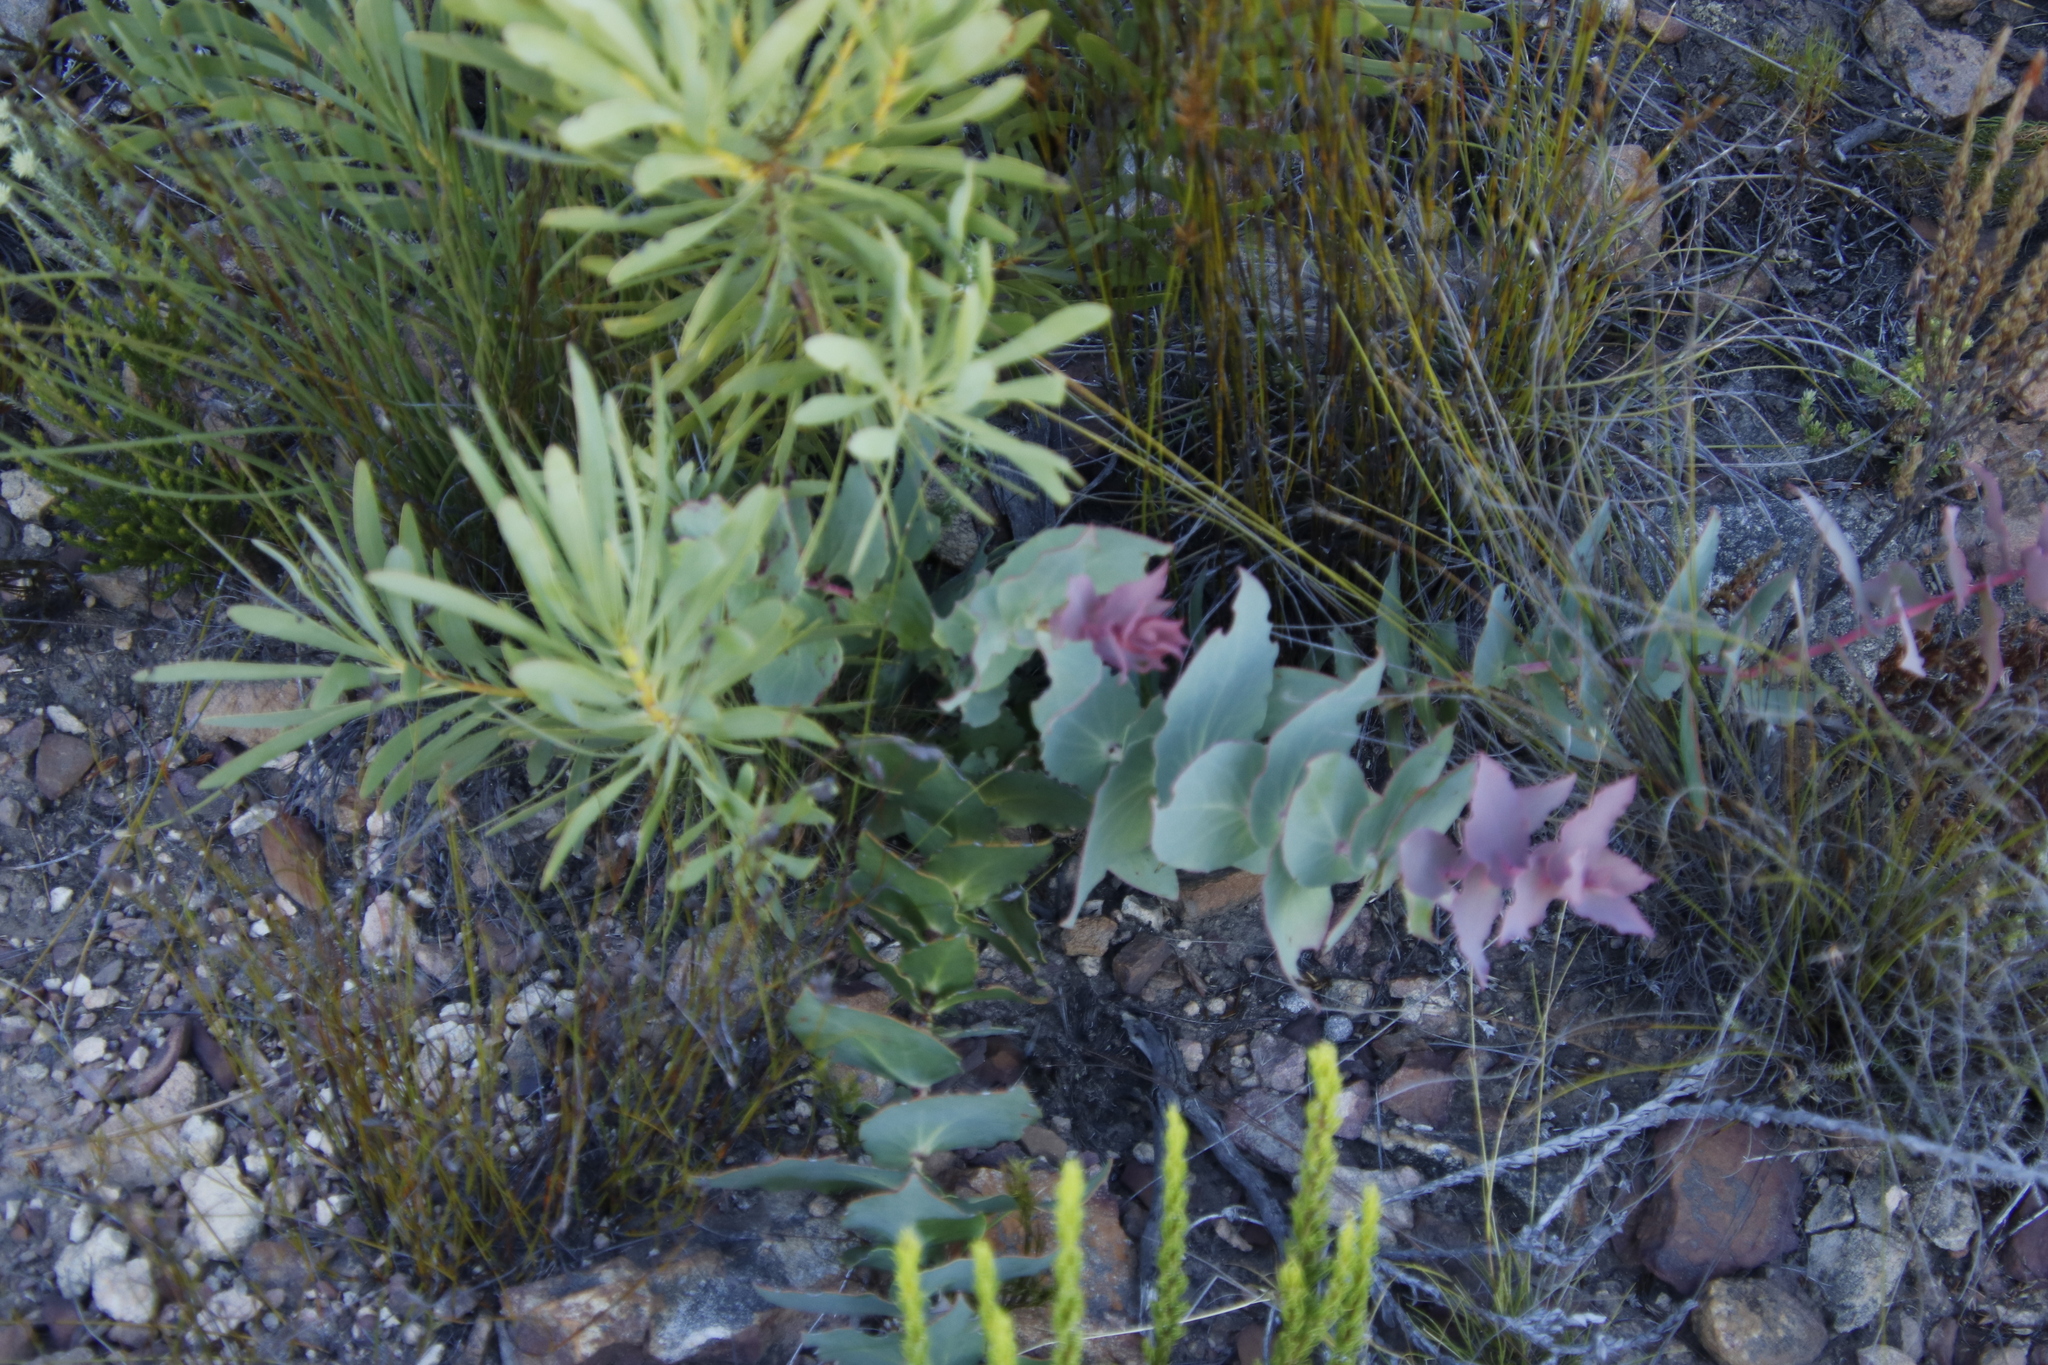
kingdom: Plantae
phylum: Tracheophyta
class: Magnoliopsida
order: Proteales
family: Proteaceae
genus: Protea
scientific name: Protea amplexicaulis
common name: Clasping-leaf sugarbush
